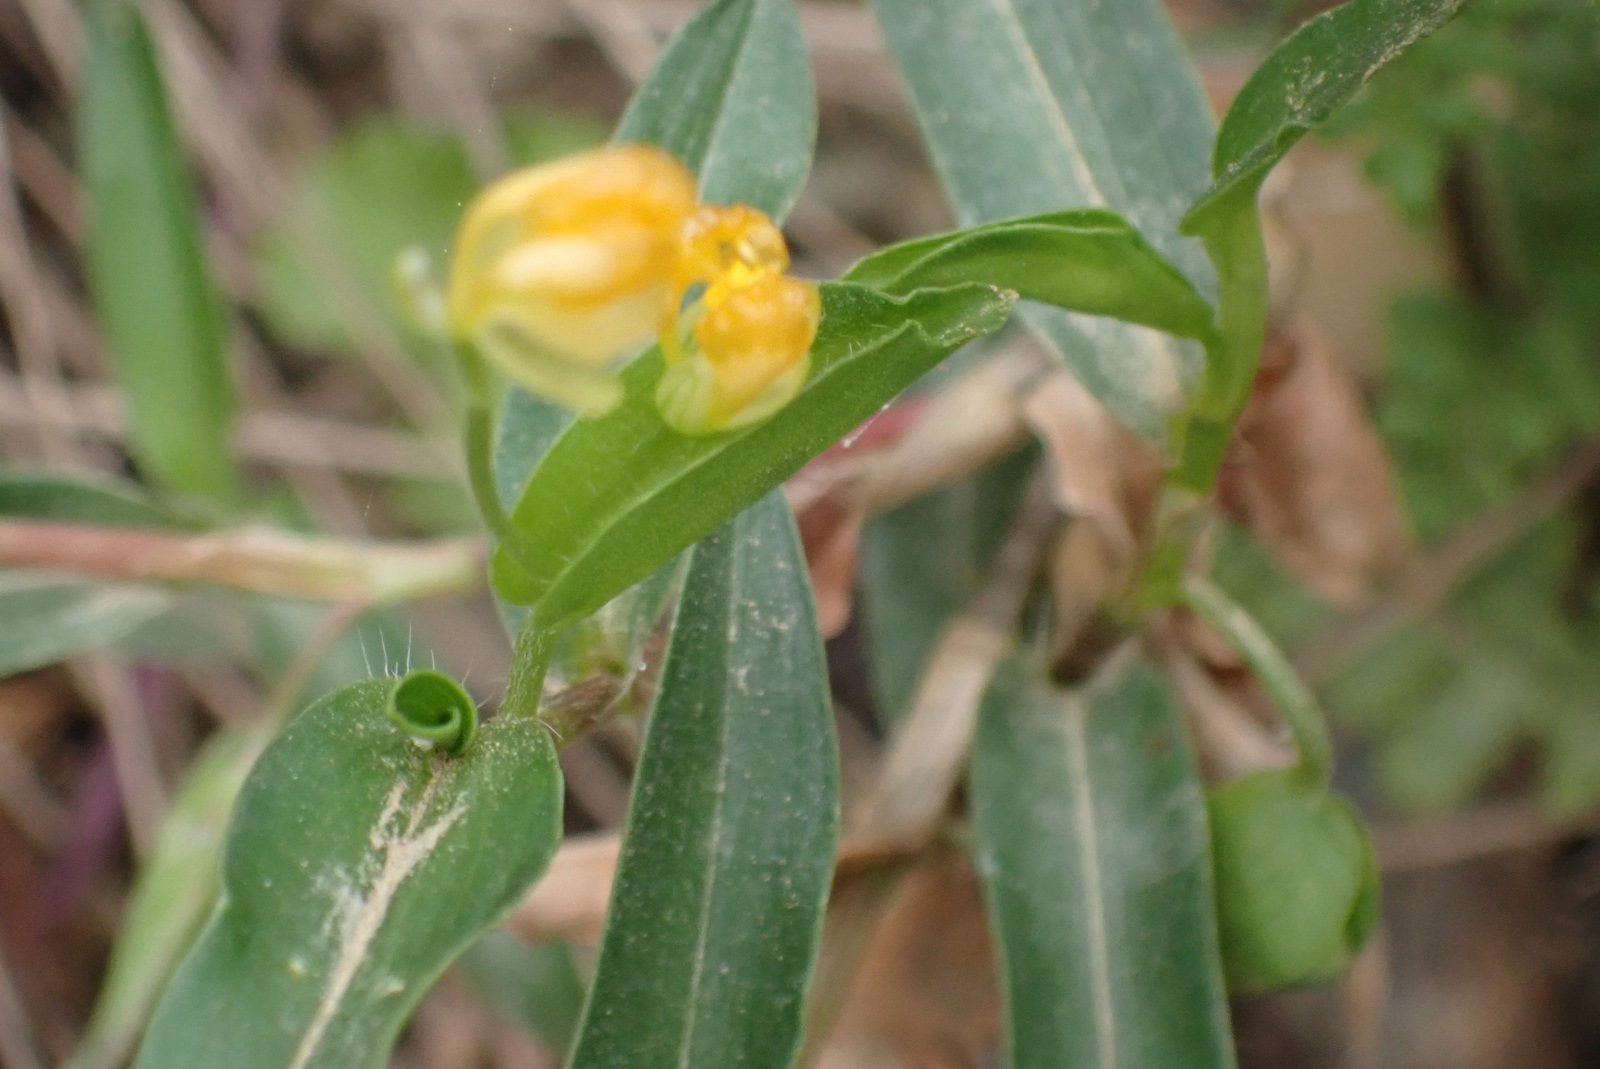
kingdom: Plantae
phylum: Tracheophyta
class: Liliopsida
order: Commelinales
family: Commelinaceae
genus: Commelina
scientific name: Commelina africana
